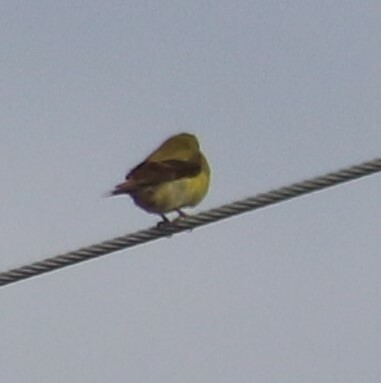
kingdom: Animalia
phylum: Chordata
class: Aves
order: Passeriformes
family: Fringillidae
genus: Spinus
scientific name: Spinus tristis
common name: American goldfinch
